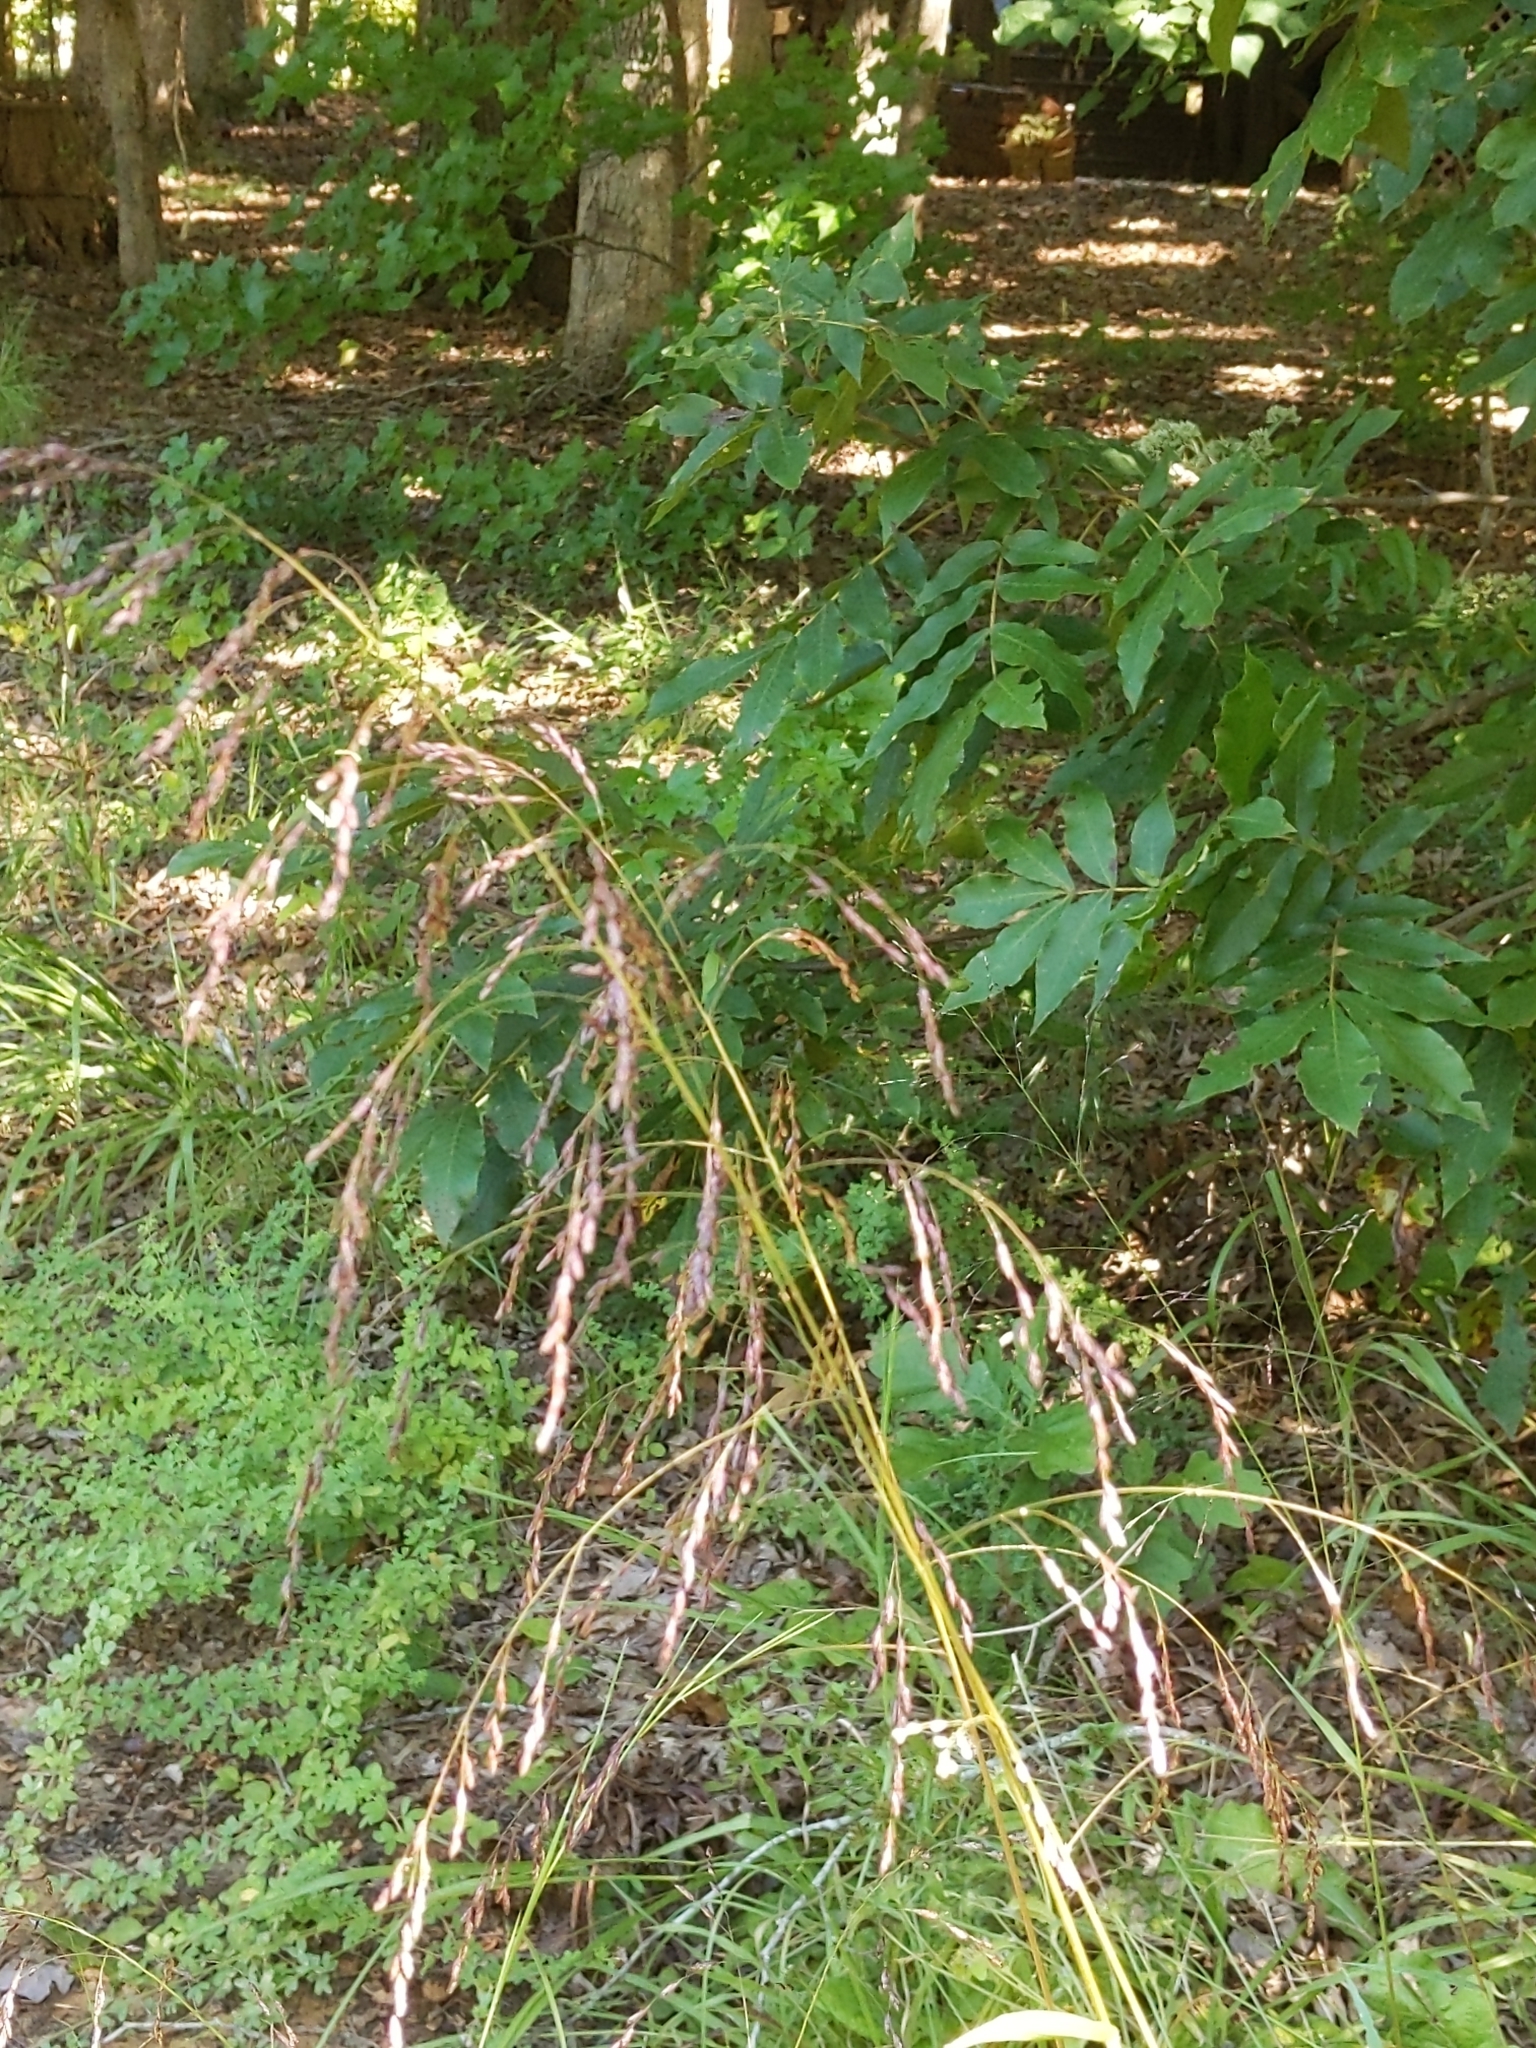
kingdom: Plantae
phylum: Tracheophyta
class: Liliopsida
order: Poales
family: Poaceae
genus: Tridens
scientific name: Tridens flavus
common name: Purpletop
